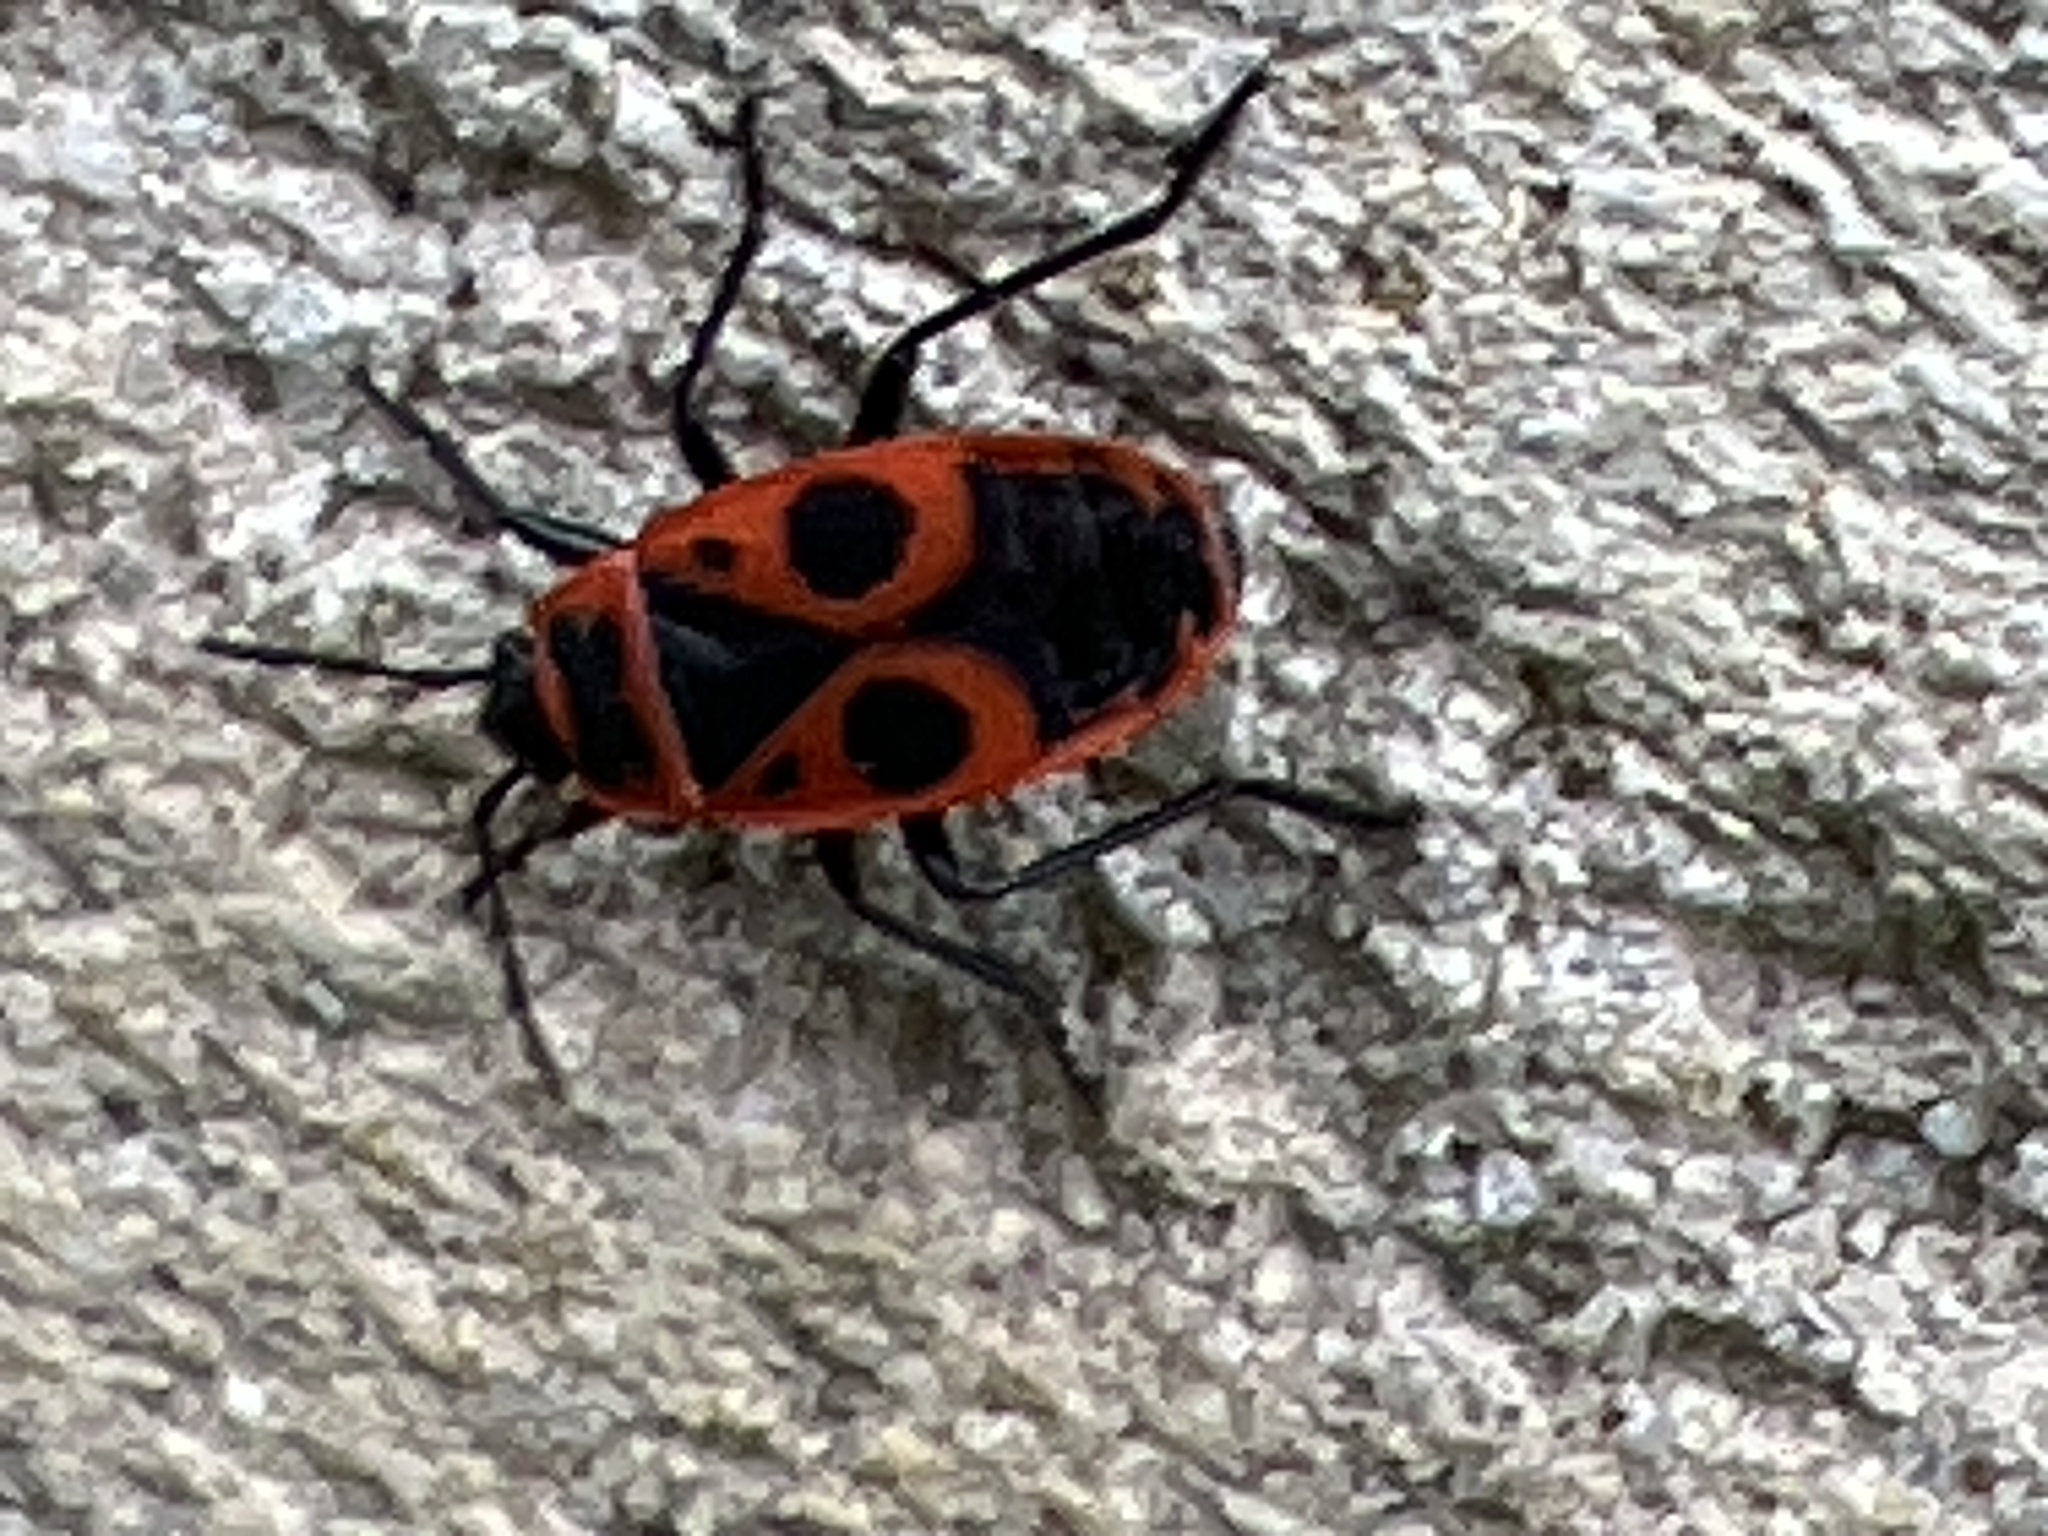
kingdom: Animalia
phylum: Arthropoda
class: Insecta
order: Hemiptera
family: Pyrrhocoridae
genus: Pyrrhocoris
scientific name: Pyrrhocoris apterus
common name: Firebug
